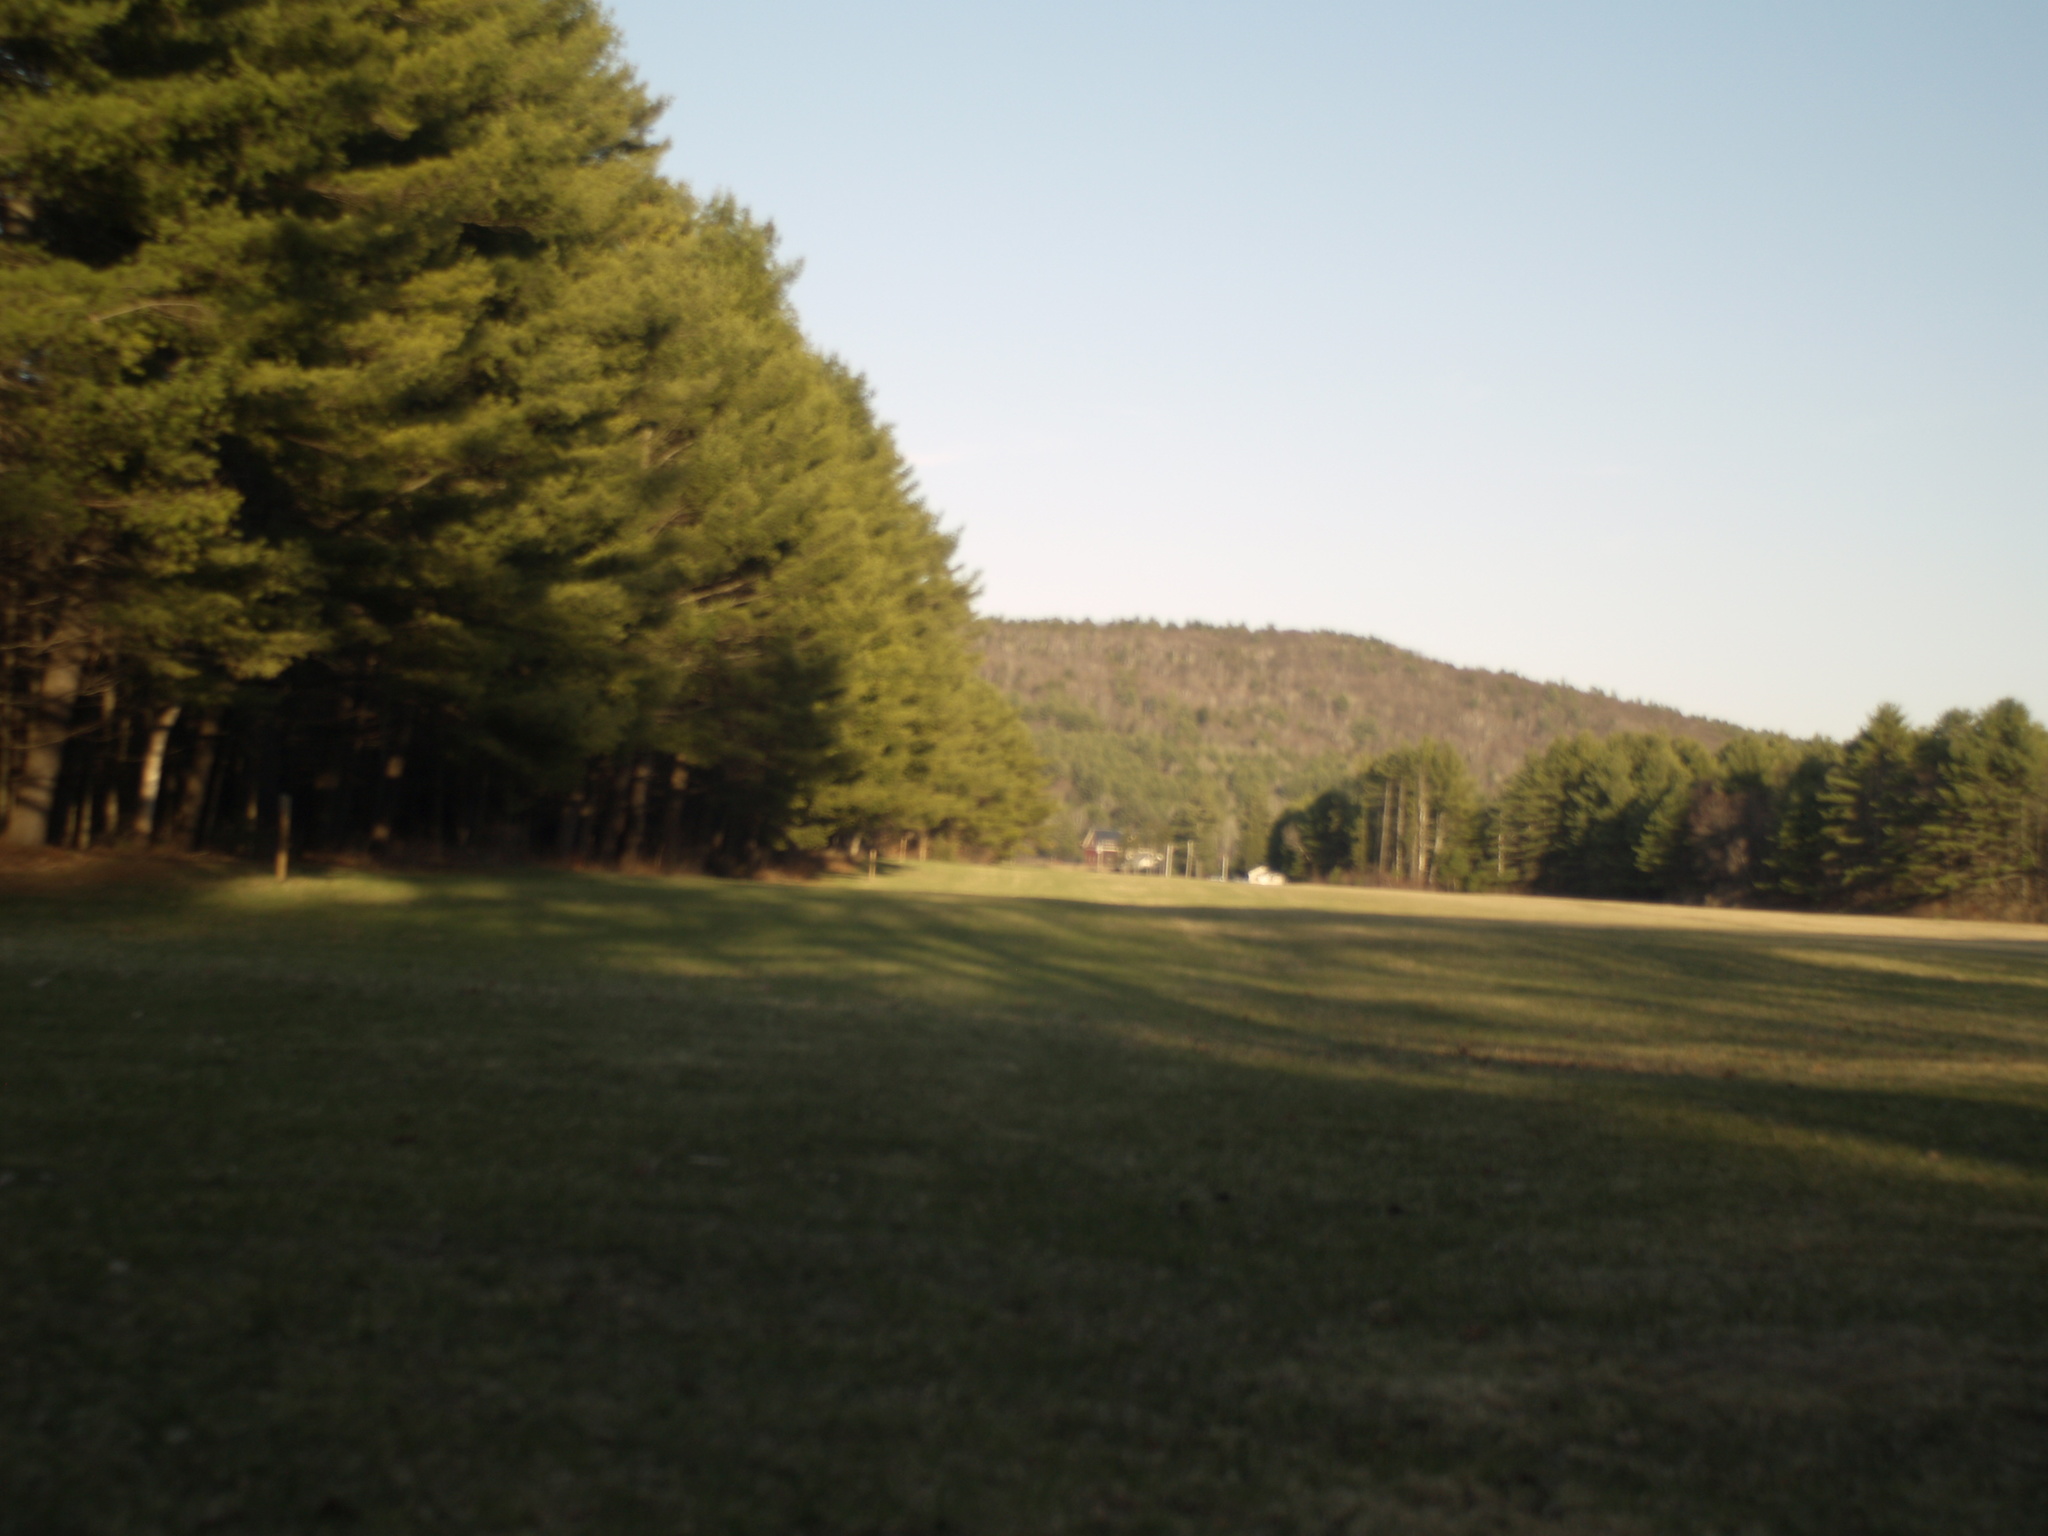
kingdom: Plantae
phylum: Tracheophyta
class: Pinopsida
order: Pinales
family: Pinaceae
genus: Pinus
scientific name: Pinus strobus
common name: Weymouth pine
